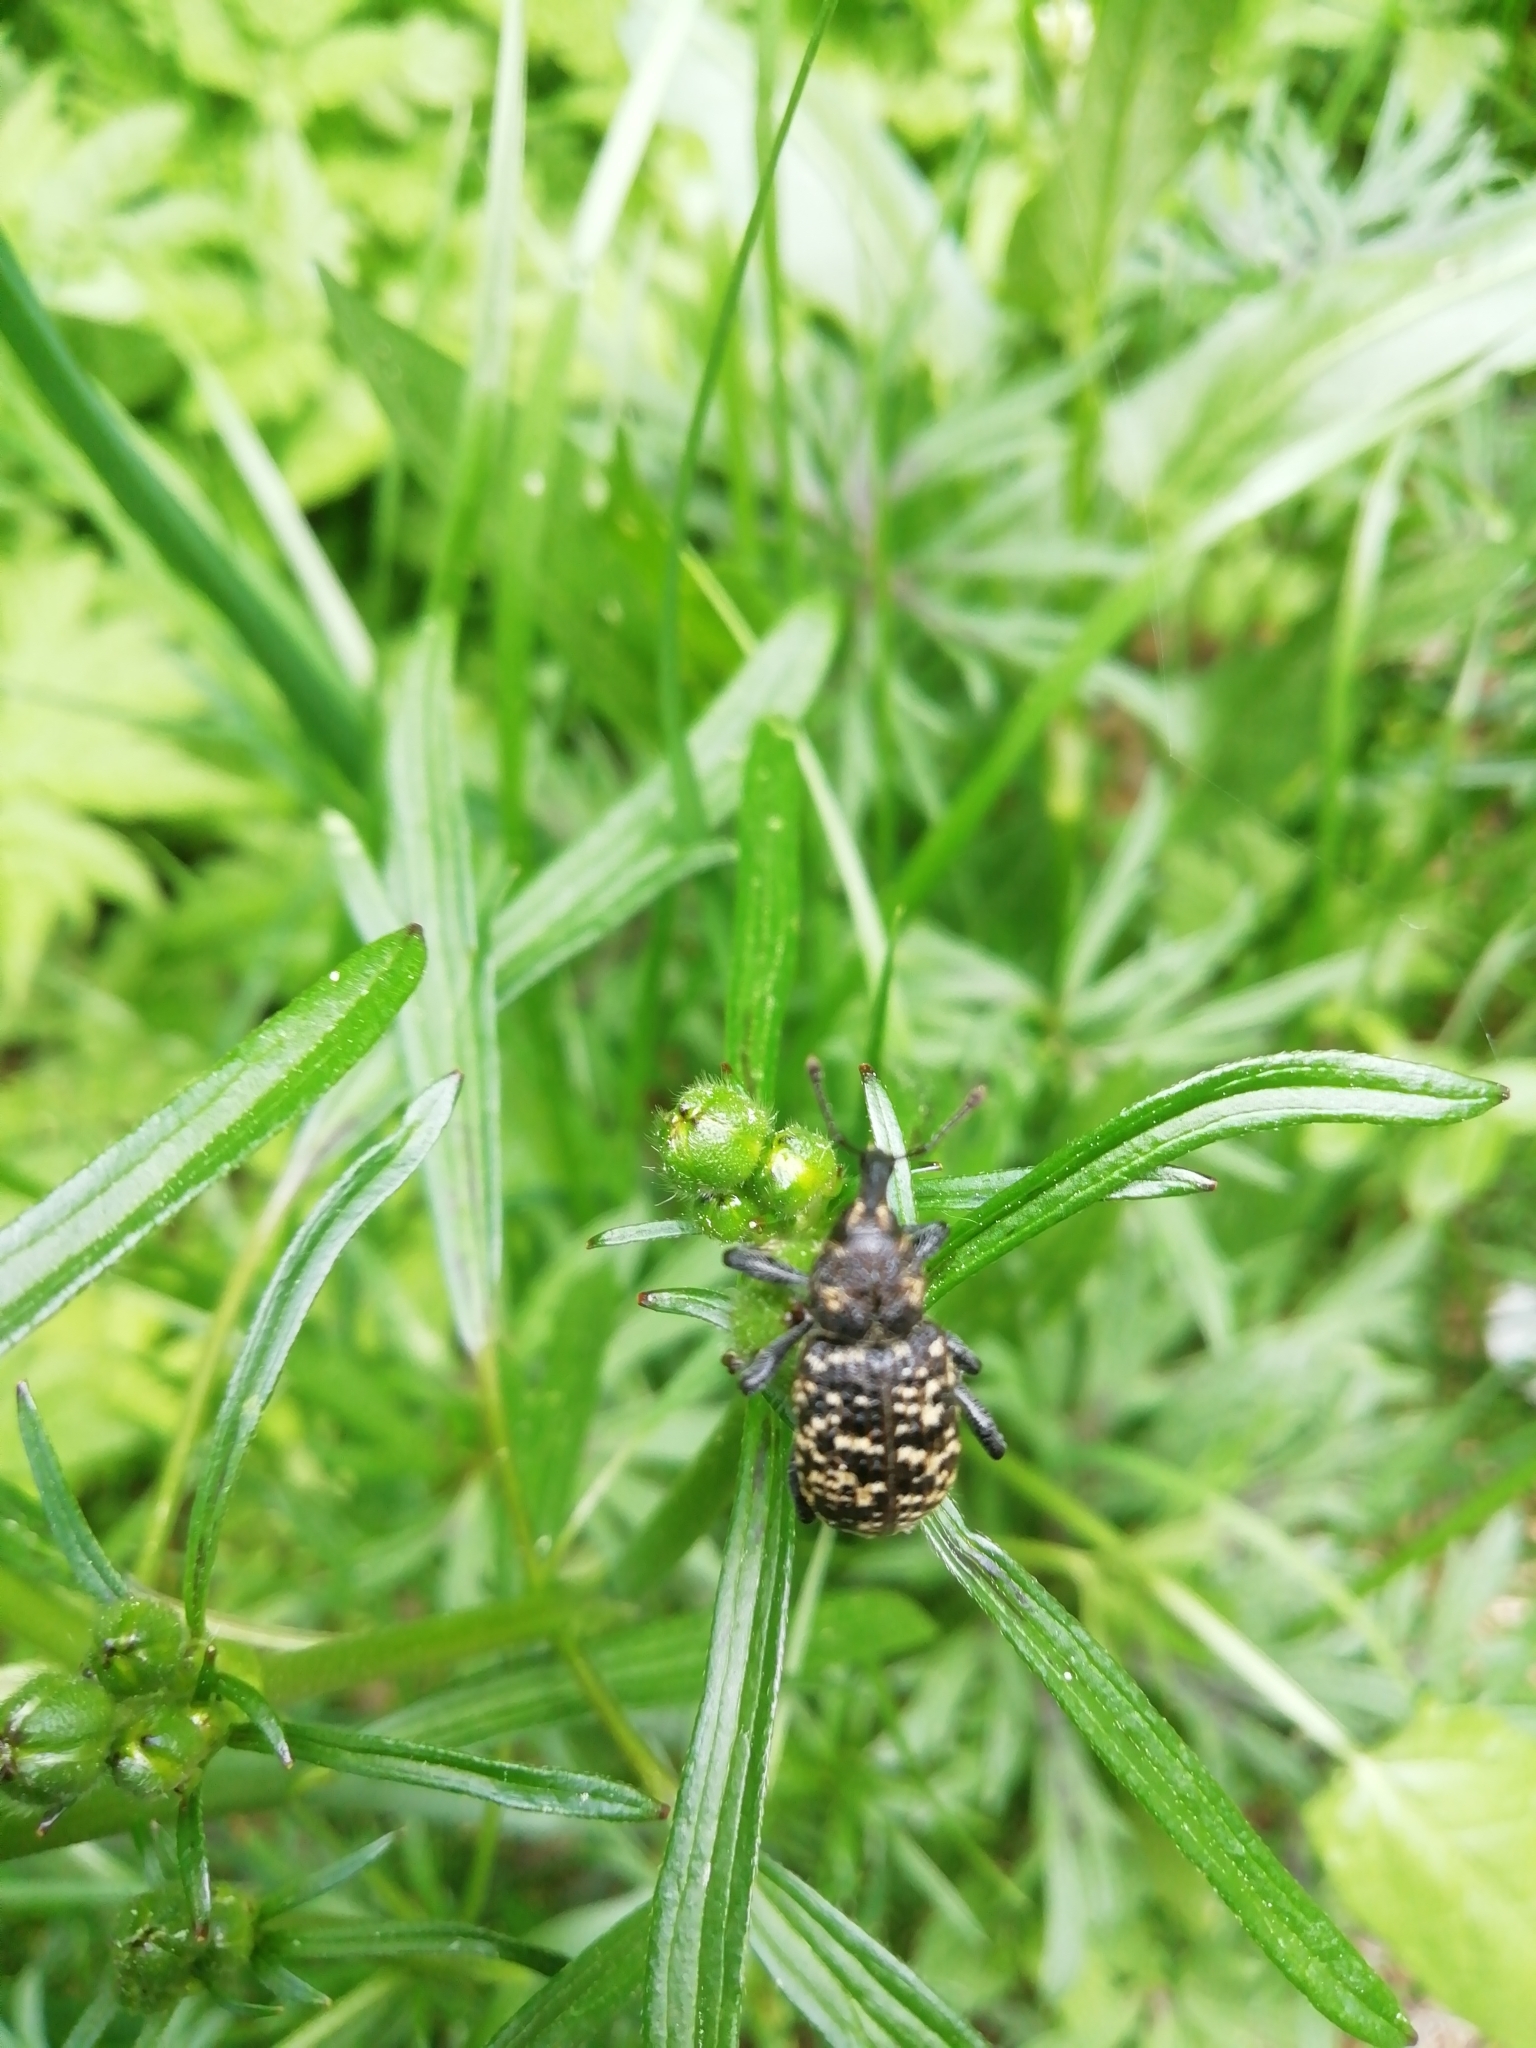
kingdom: Animalia
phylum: Arthropoda
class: Insecta
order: Coleoptera
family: Curculionidae
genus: Hylobius
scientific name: Hylobius excavatus
